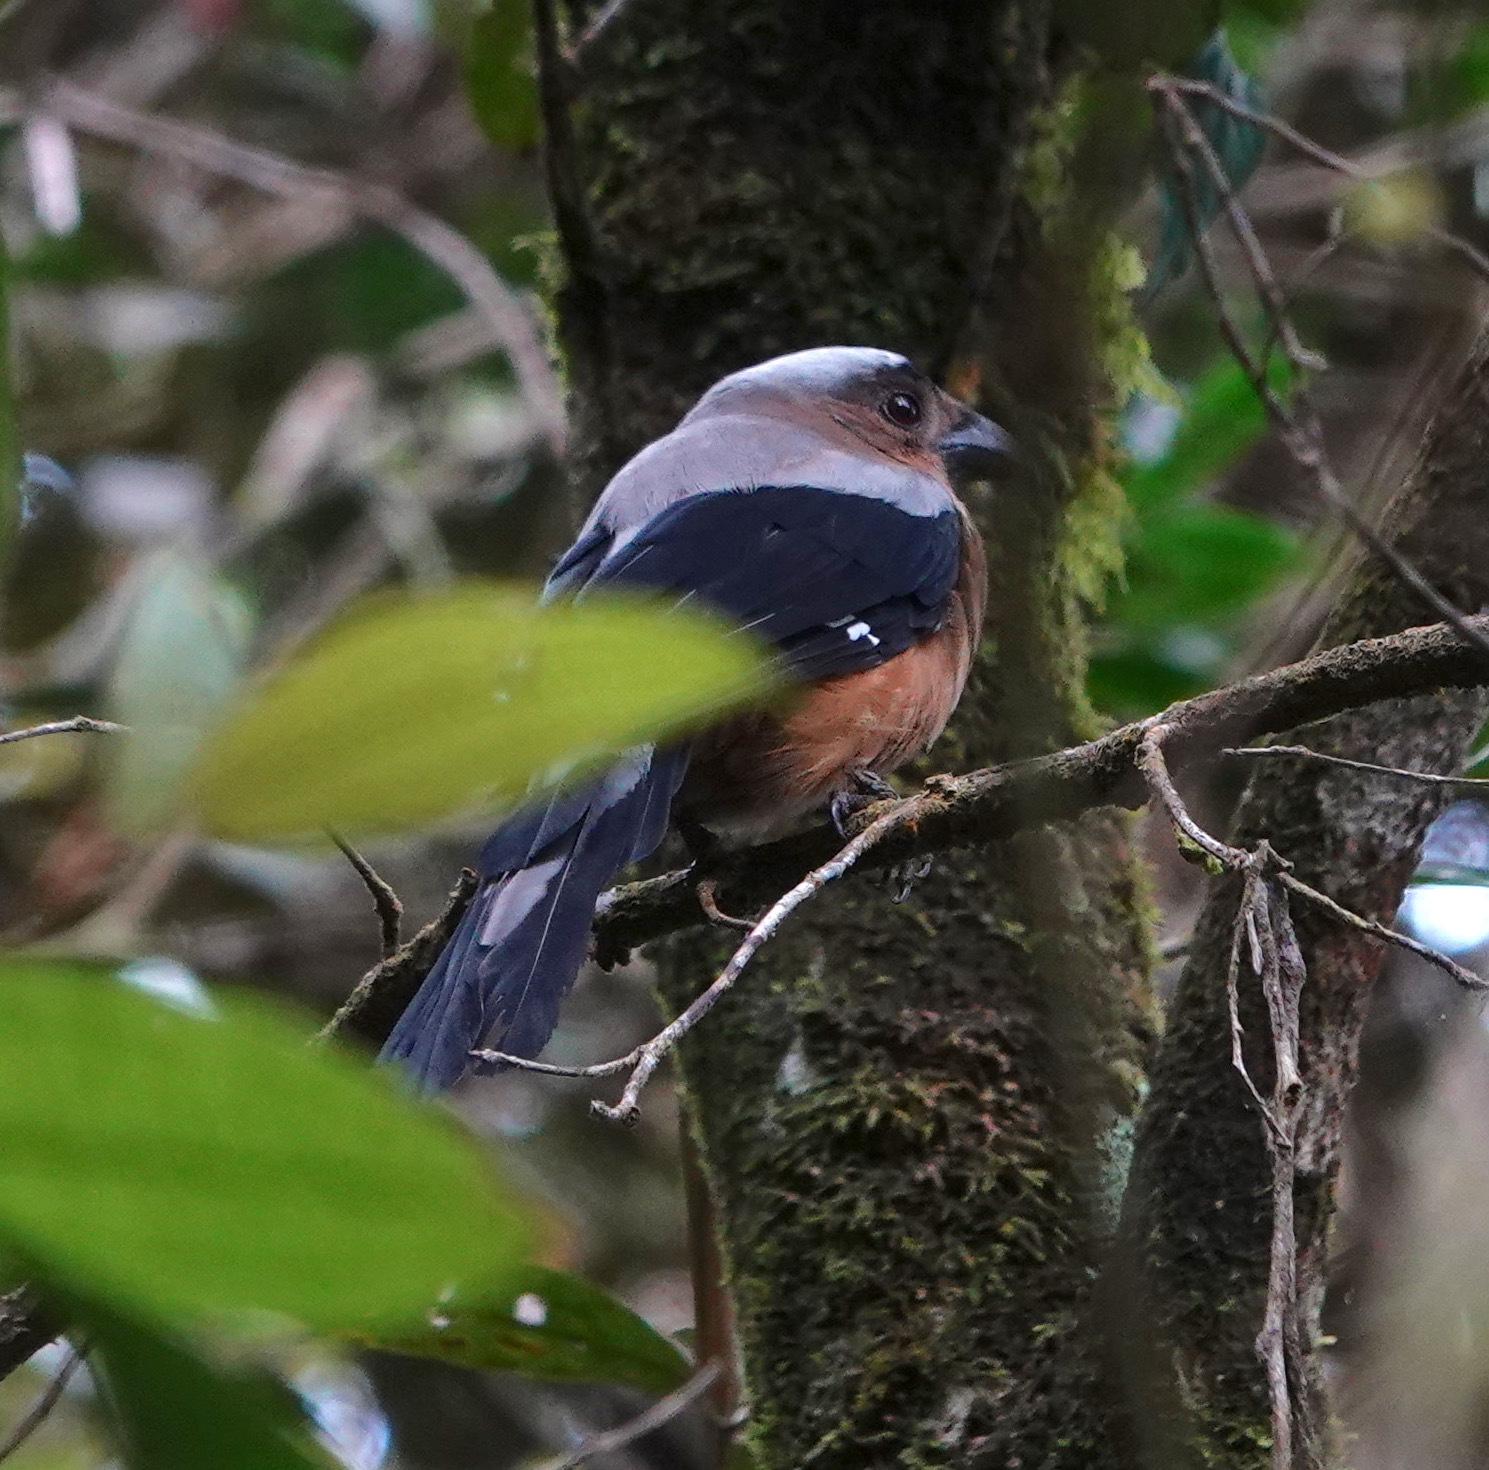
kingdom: Animalia
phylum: Chordata
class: Aves
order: Passeriformes
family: Corvidae
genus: Dendrocitta
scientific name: Dendrocitta cinerascens
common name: Bornean treepie
